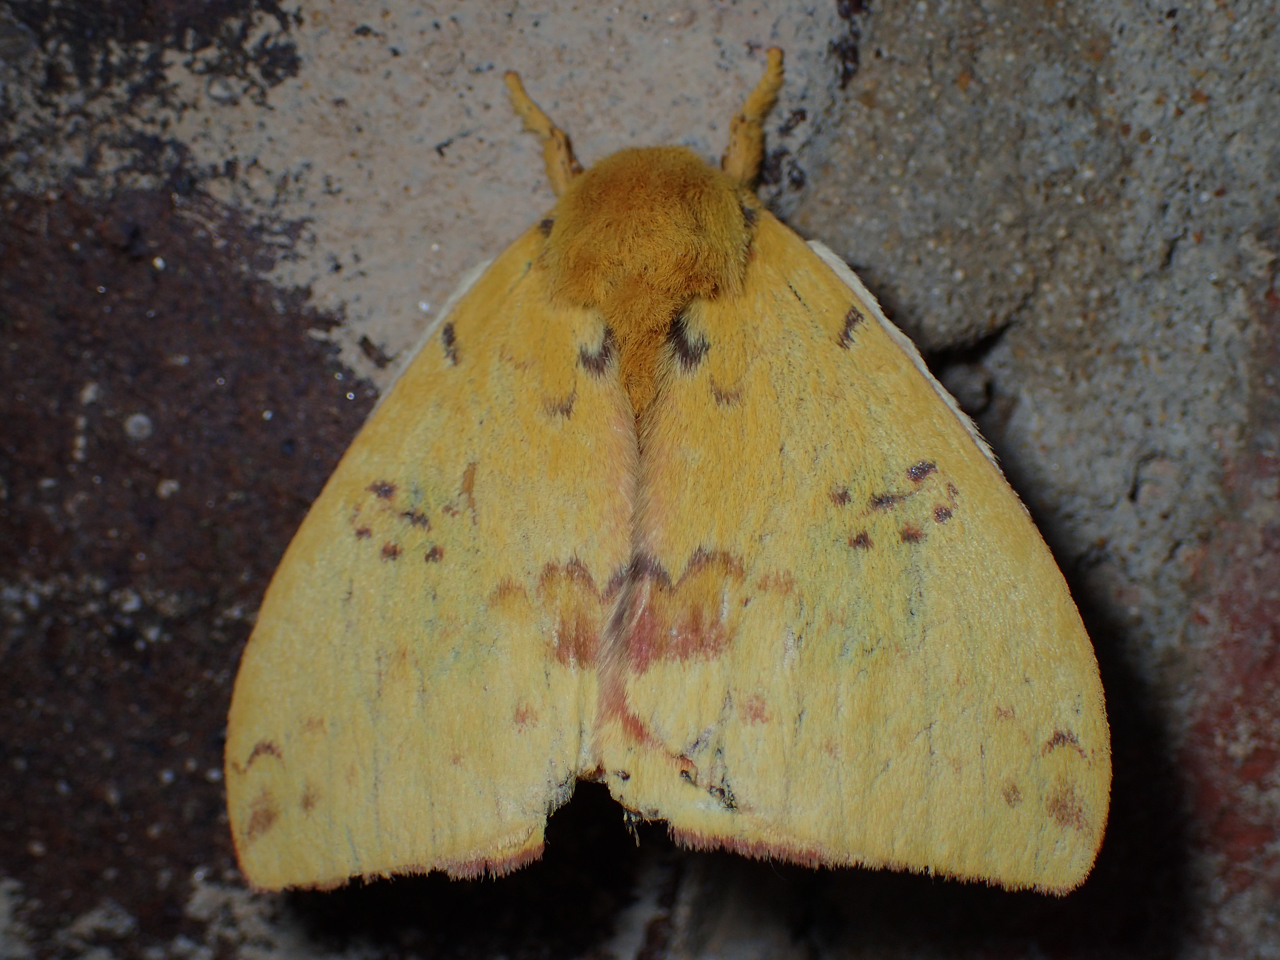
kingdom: Animalia
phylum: Arthropoda
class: Insecta
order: Lepidoptera
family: Saturniidae
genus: Automeris
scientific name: Automeris io
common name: Io moth
